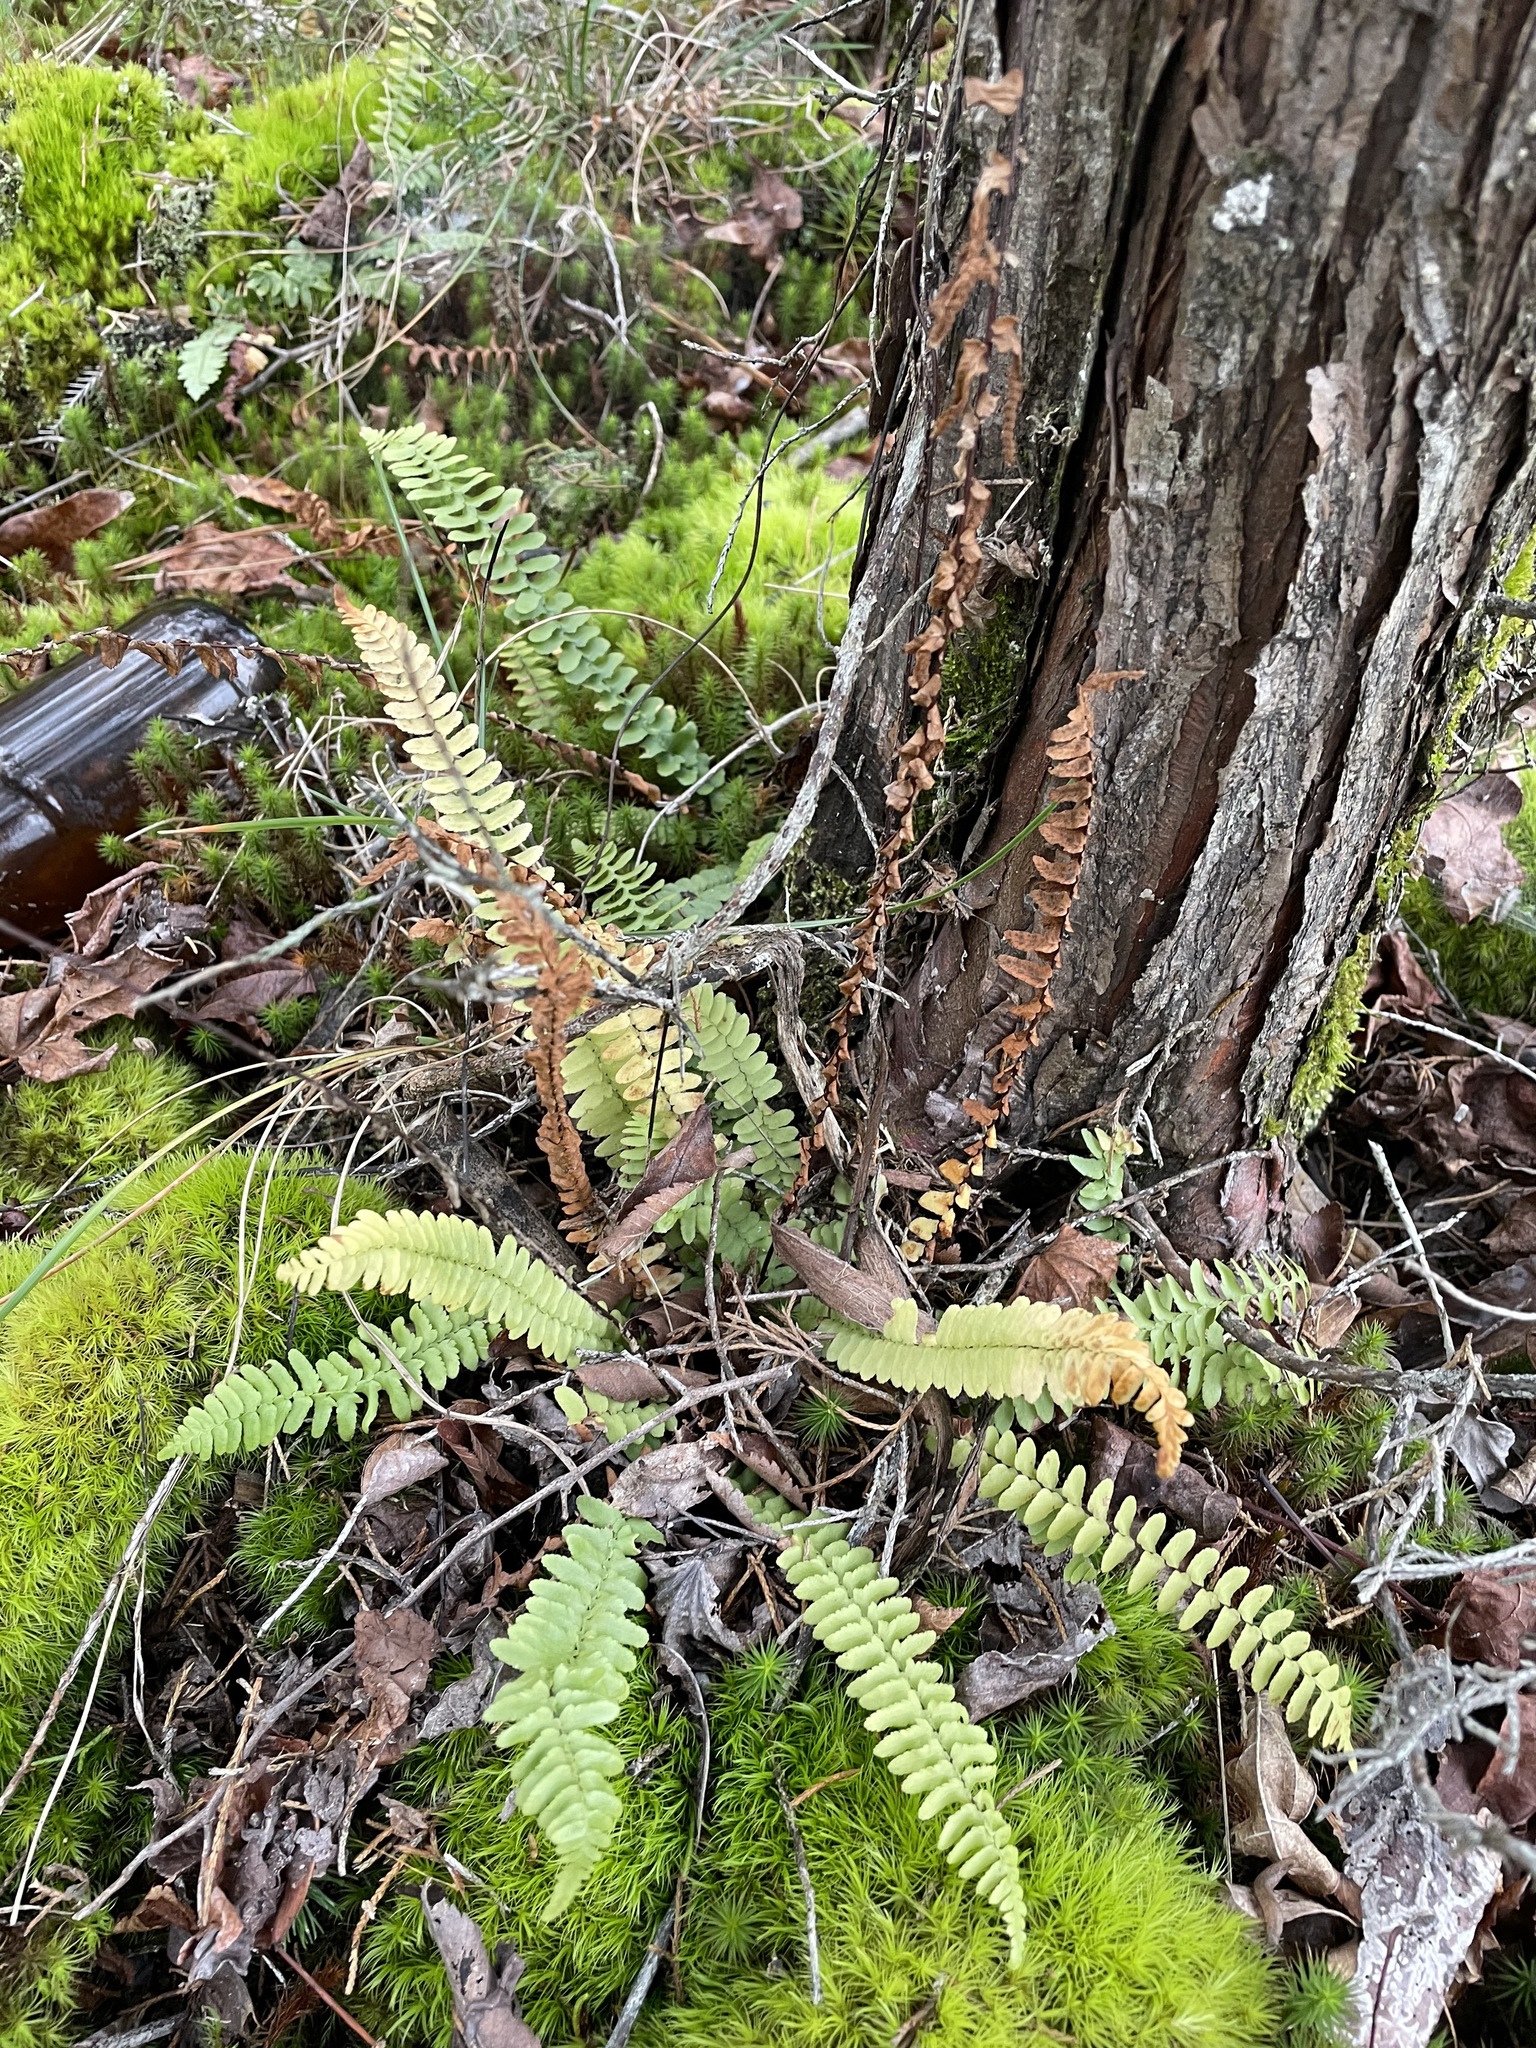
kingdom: Plantae
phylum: Tracheophyta
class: Polypodiopsida
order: Polypodiales
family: Aspleniaceae
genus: Asplenium
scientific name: Asplenium platyneuron
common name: Ebony spleenwort
